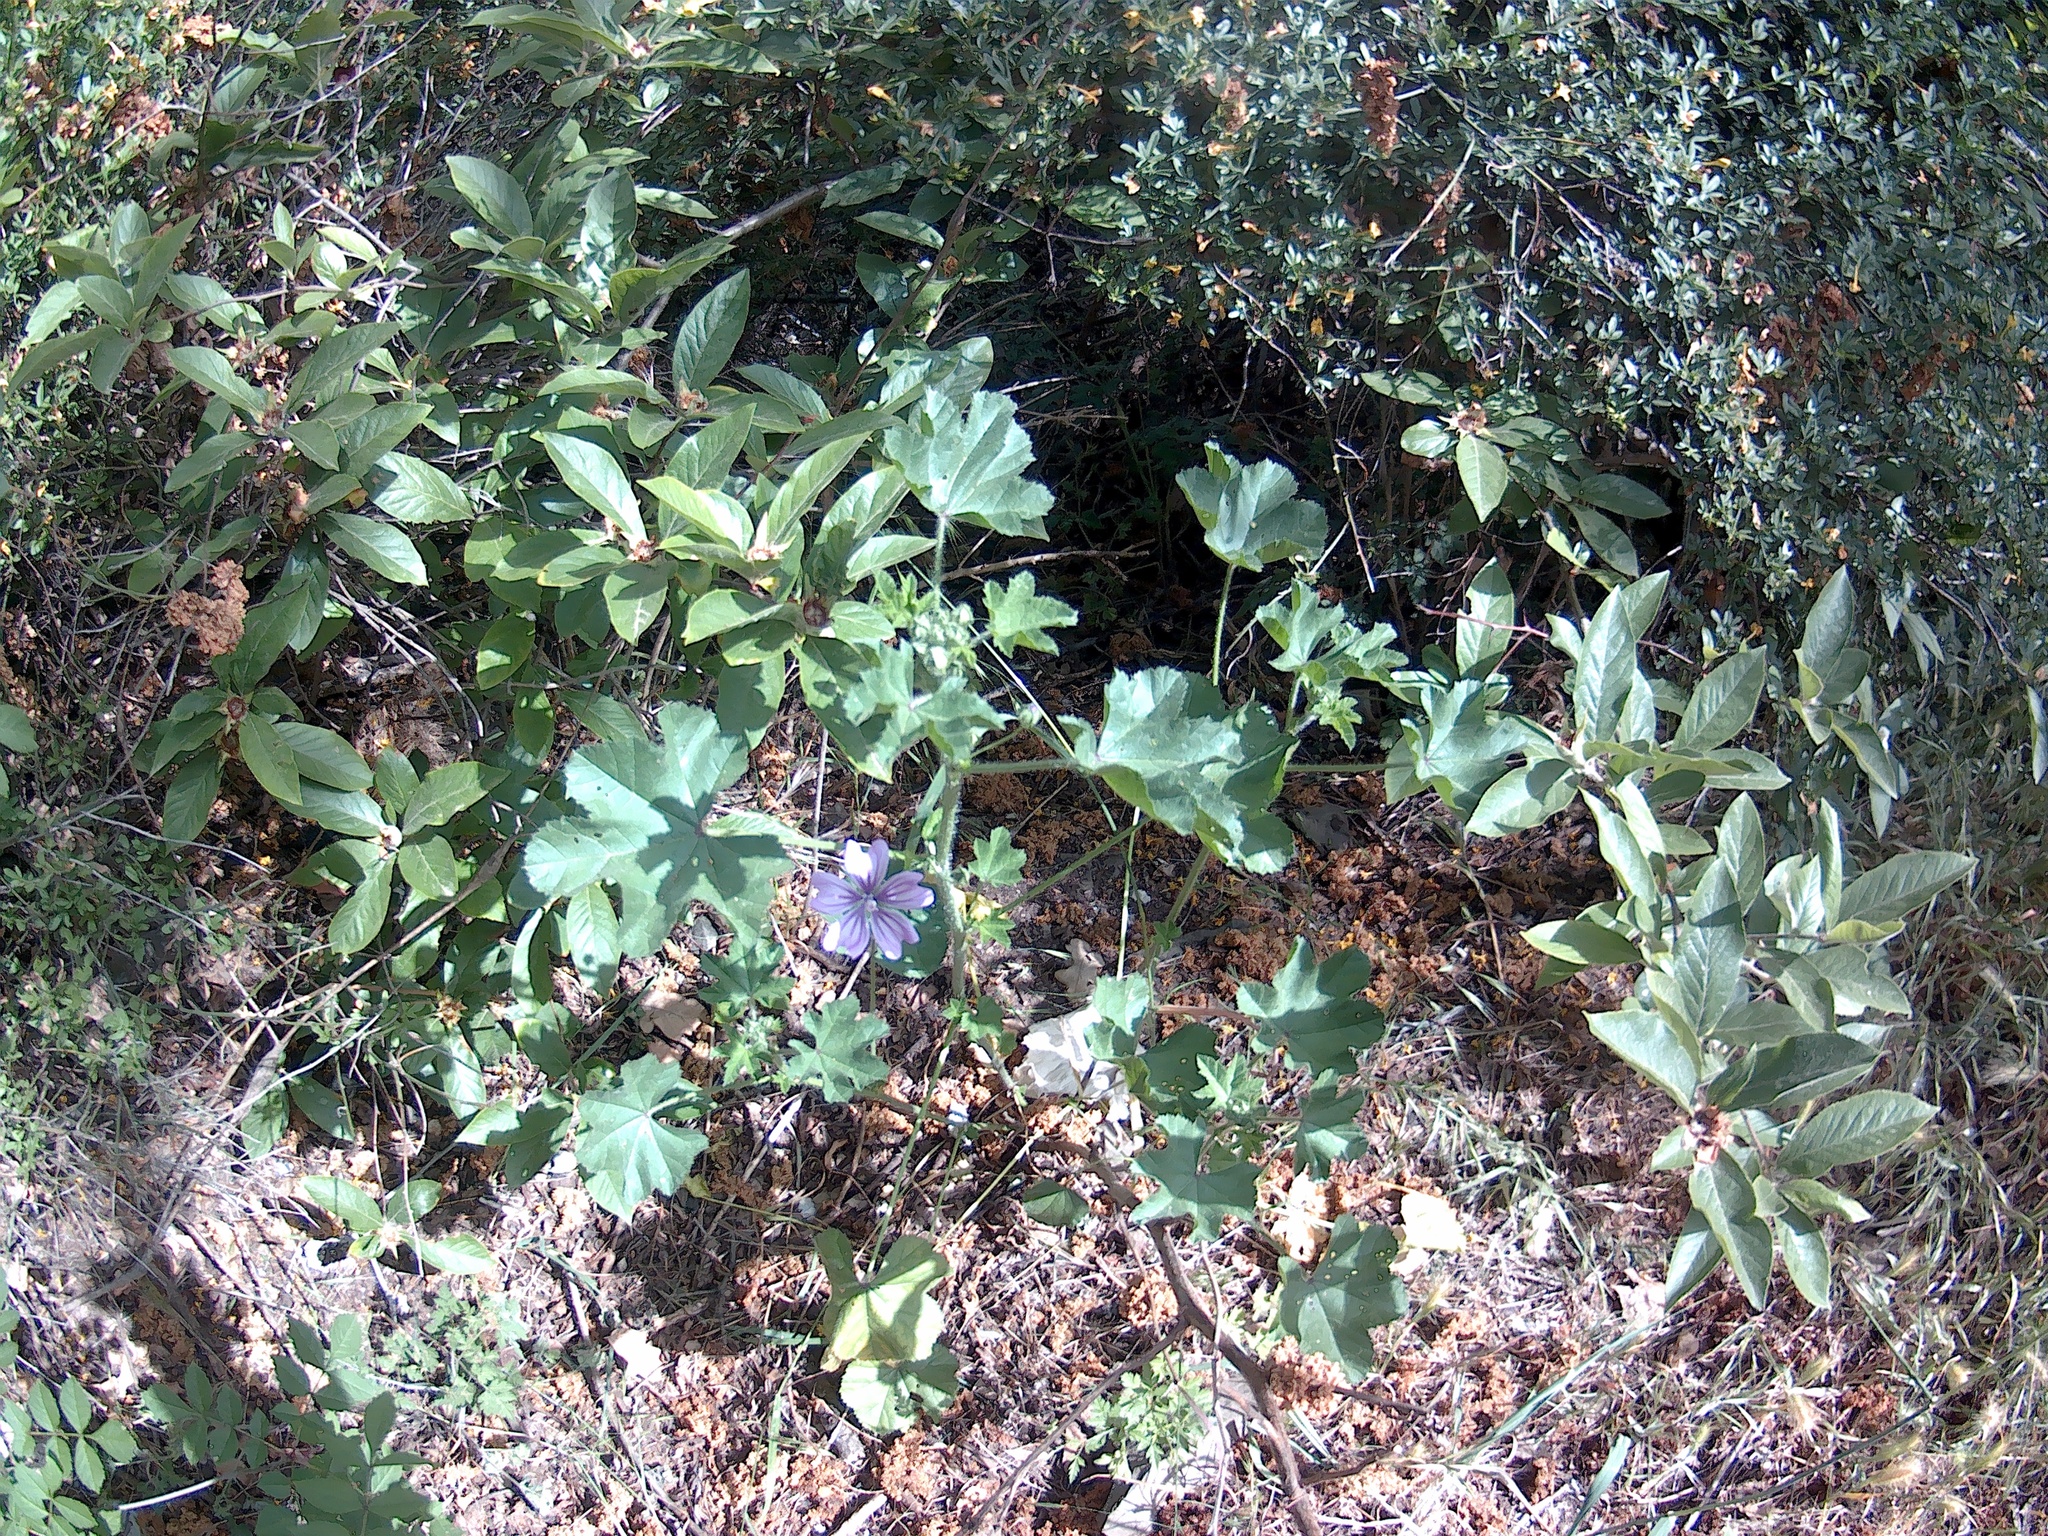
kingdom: Plantae
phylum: Tracheophyta
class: Magnoliopsida
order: Malvales
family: Malvaceae
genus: Malva
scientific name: Malva sylvestris
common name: Common mallow
